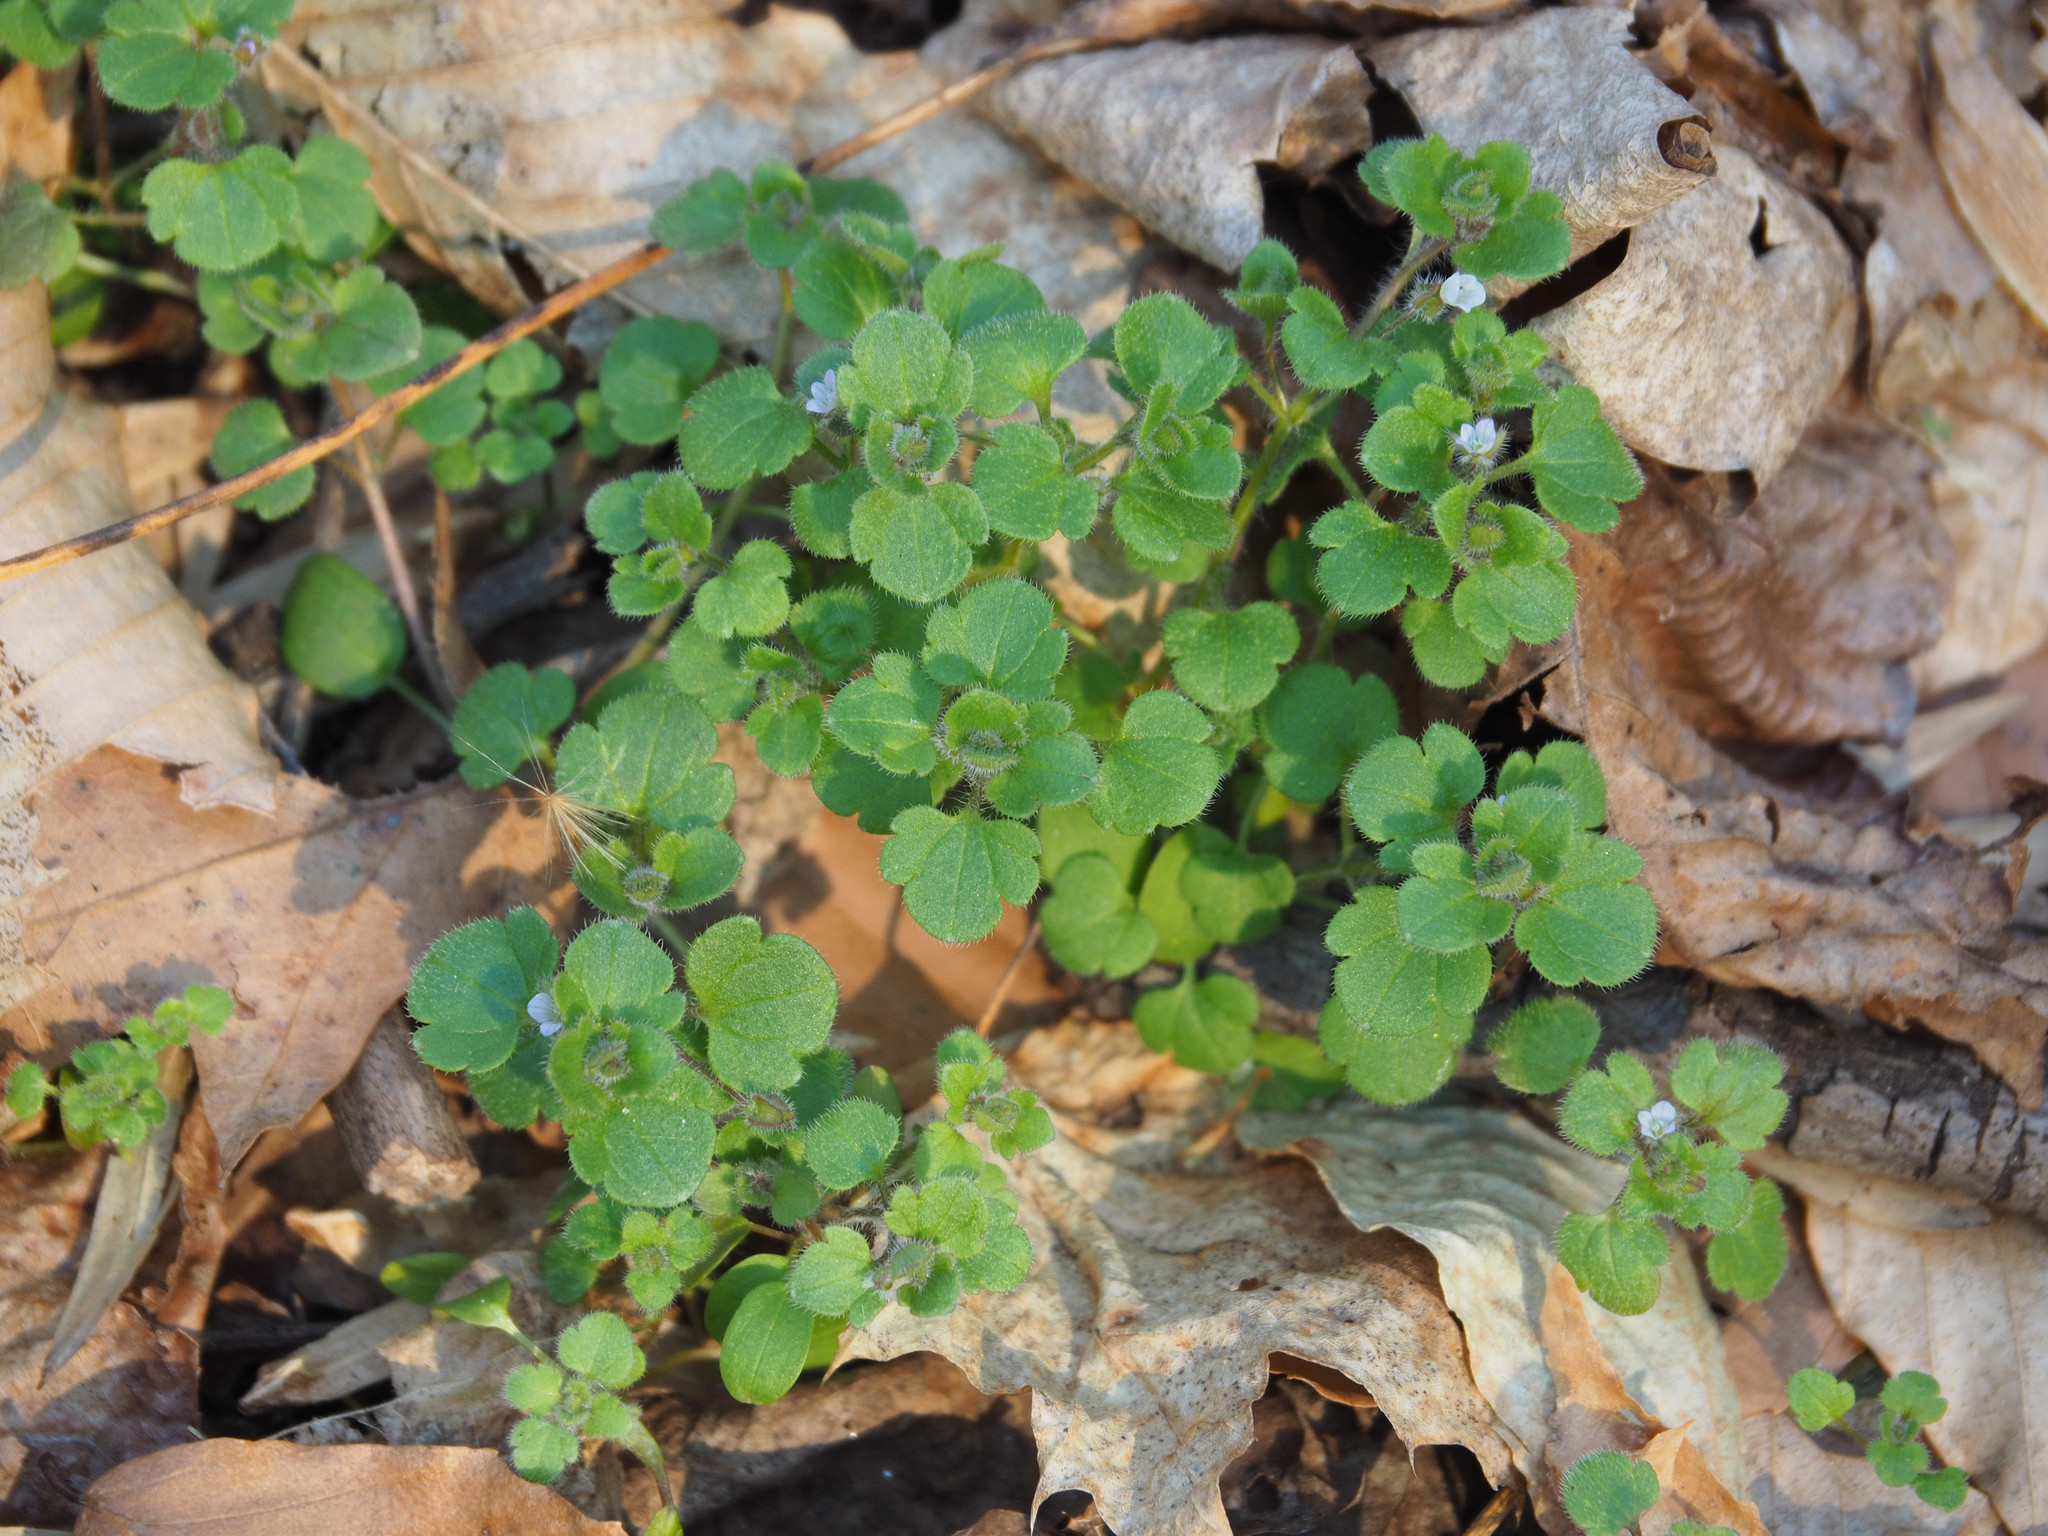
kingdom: Plantae
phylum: Tracheophyta
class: Magnoliopsida
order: Lamiales
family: Plantaginaceae
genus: Veronica
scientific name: Veronica sublobata
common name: False ivy-leaved speedwell
